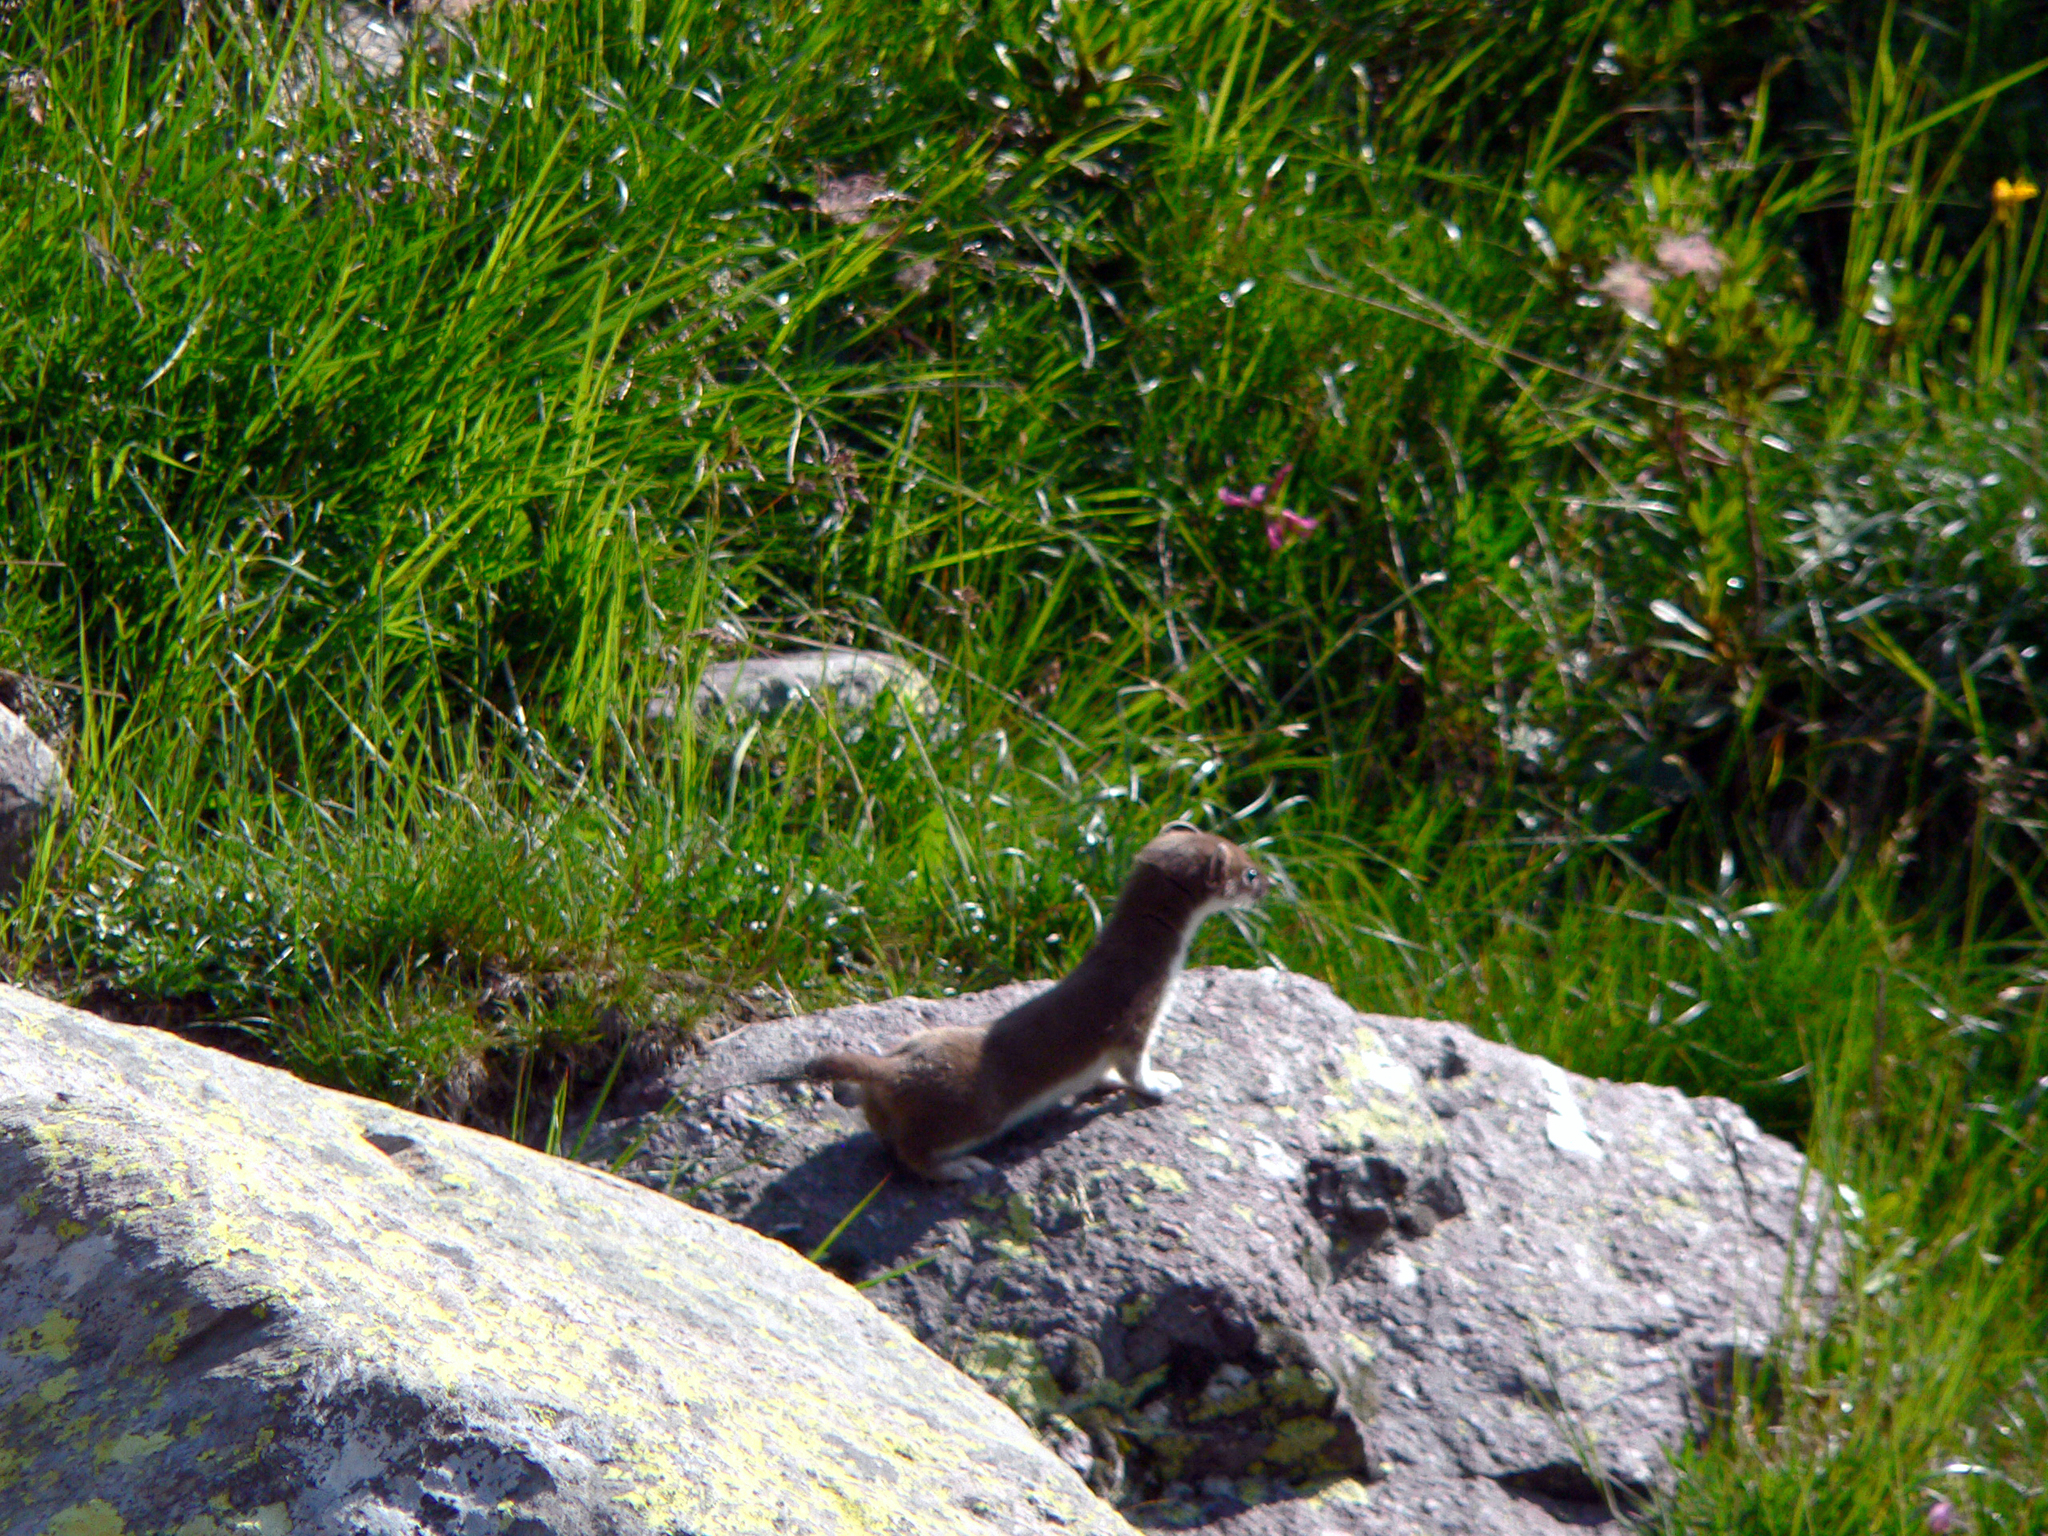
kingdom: Animalia
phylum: Chordata
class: Mammalia
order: Carnivora
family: Mustelidae
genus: Mustela
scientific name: Mustela nivalis
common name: Least weasel
